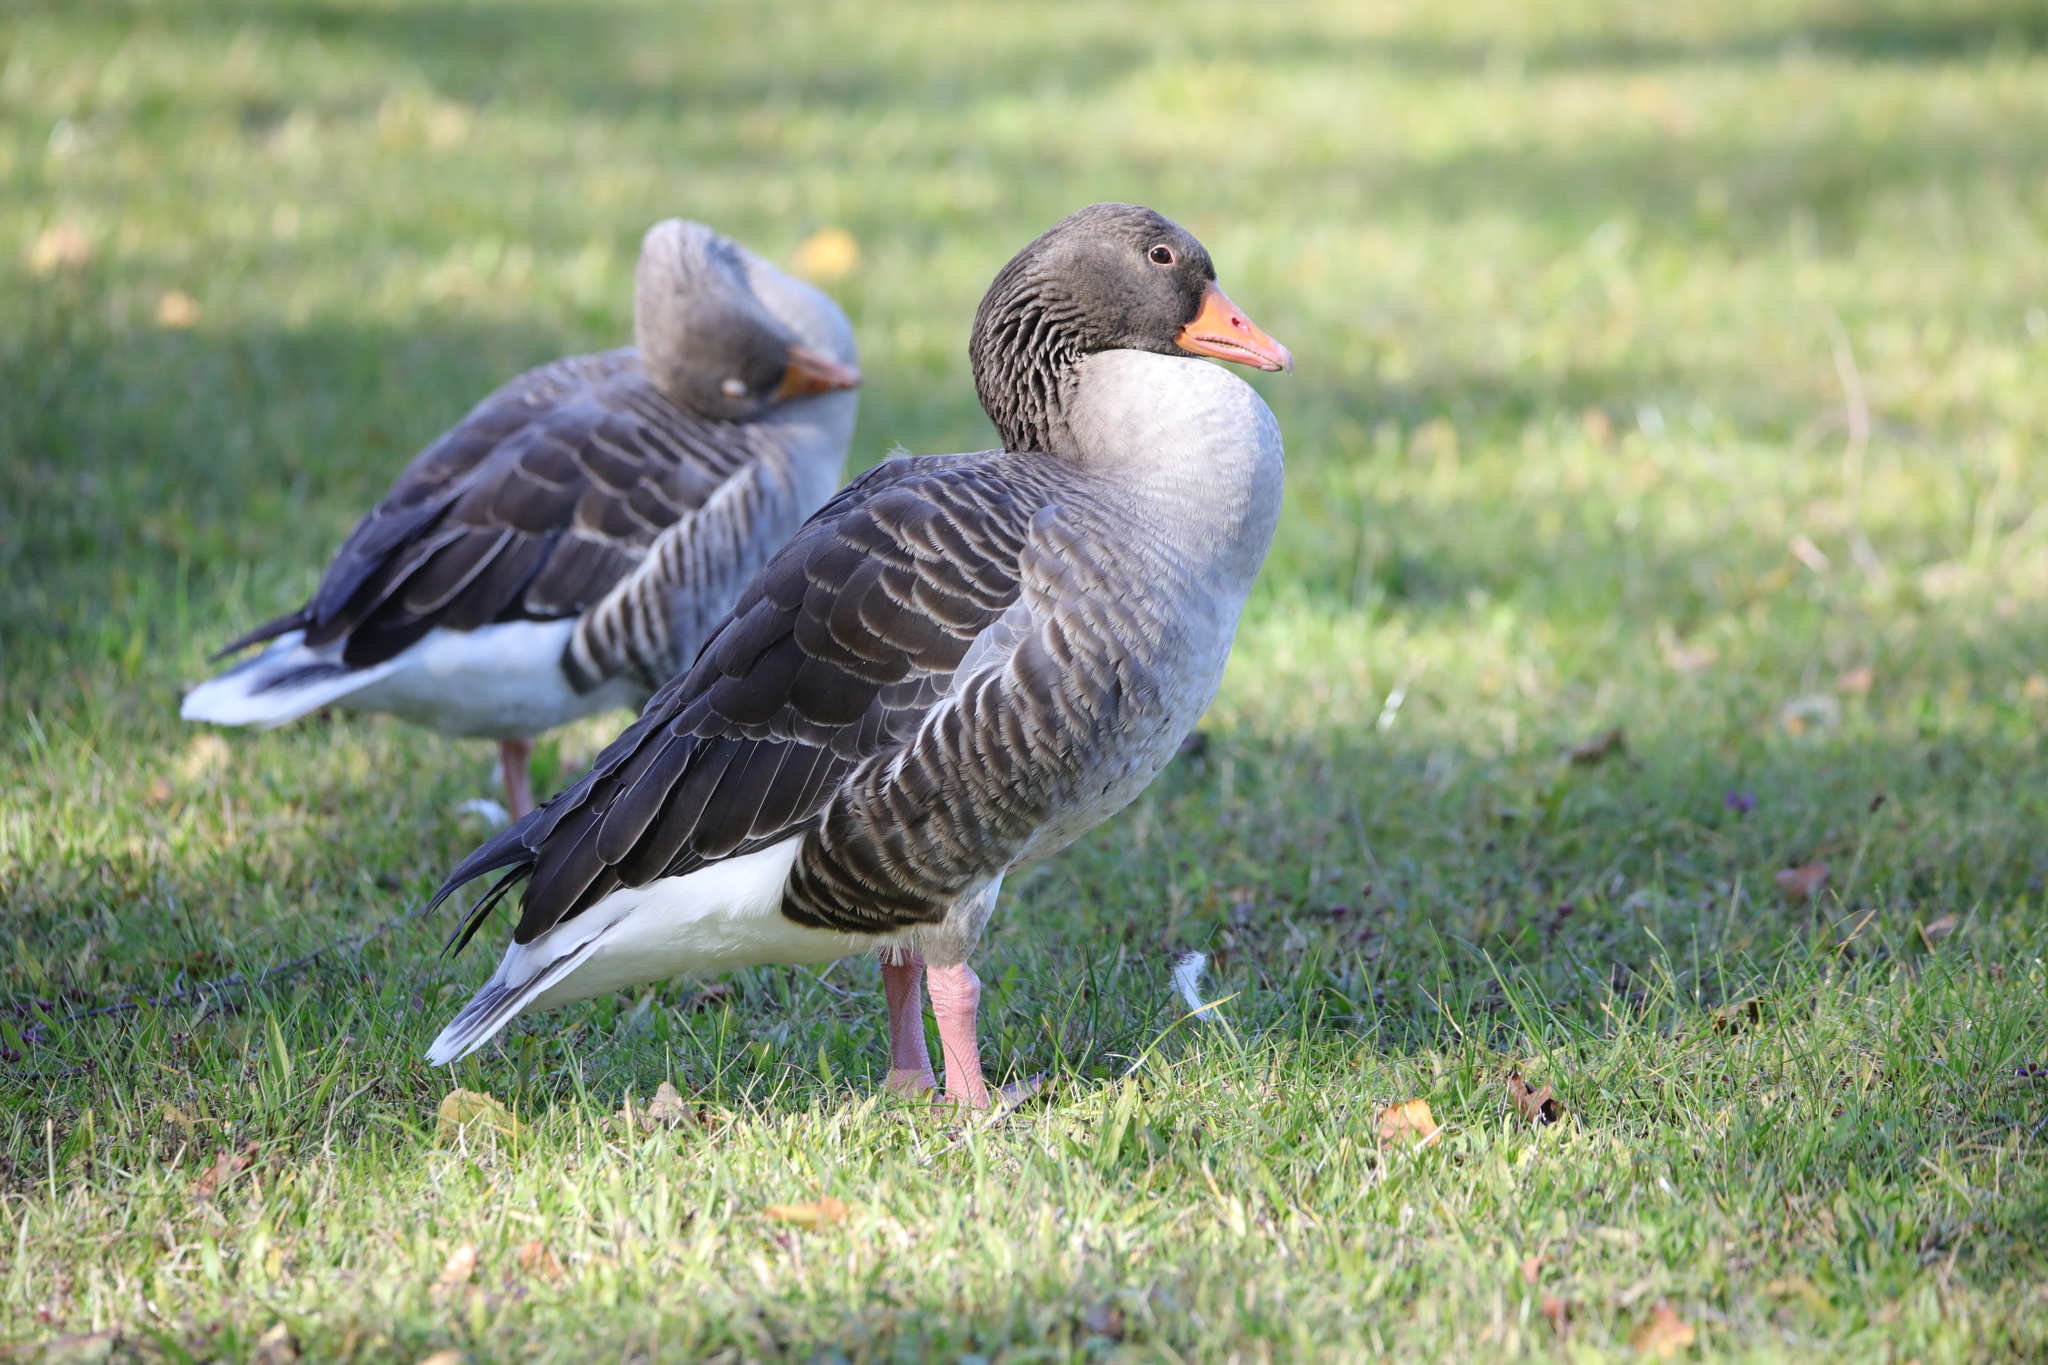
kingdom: Animalia
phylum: Chordata
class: Aves
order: Anseriformes
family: Anatidae
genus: Anser
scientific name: Anser anser
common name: Greylag goose
